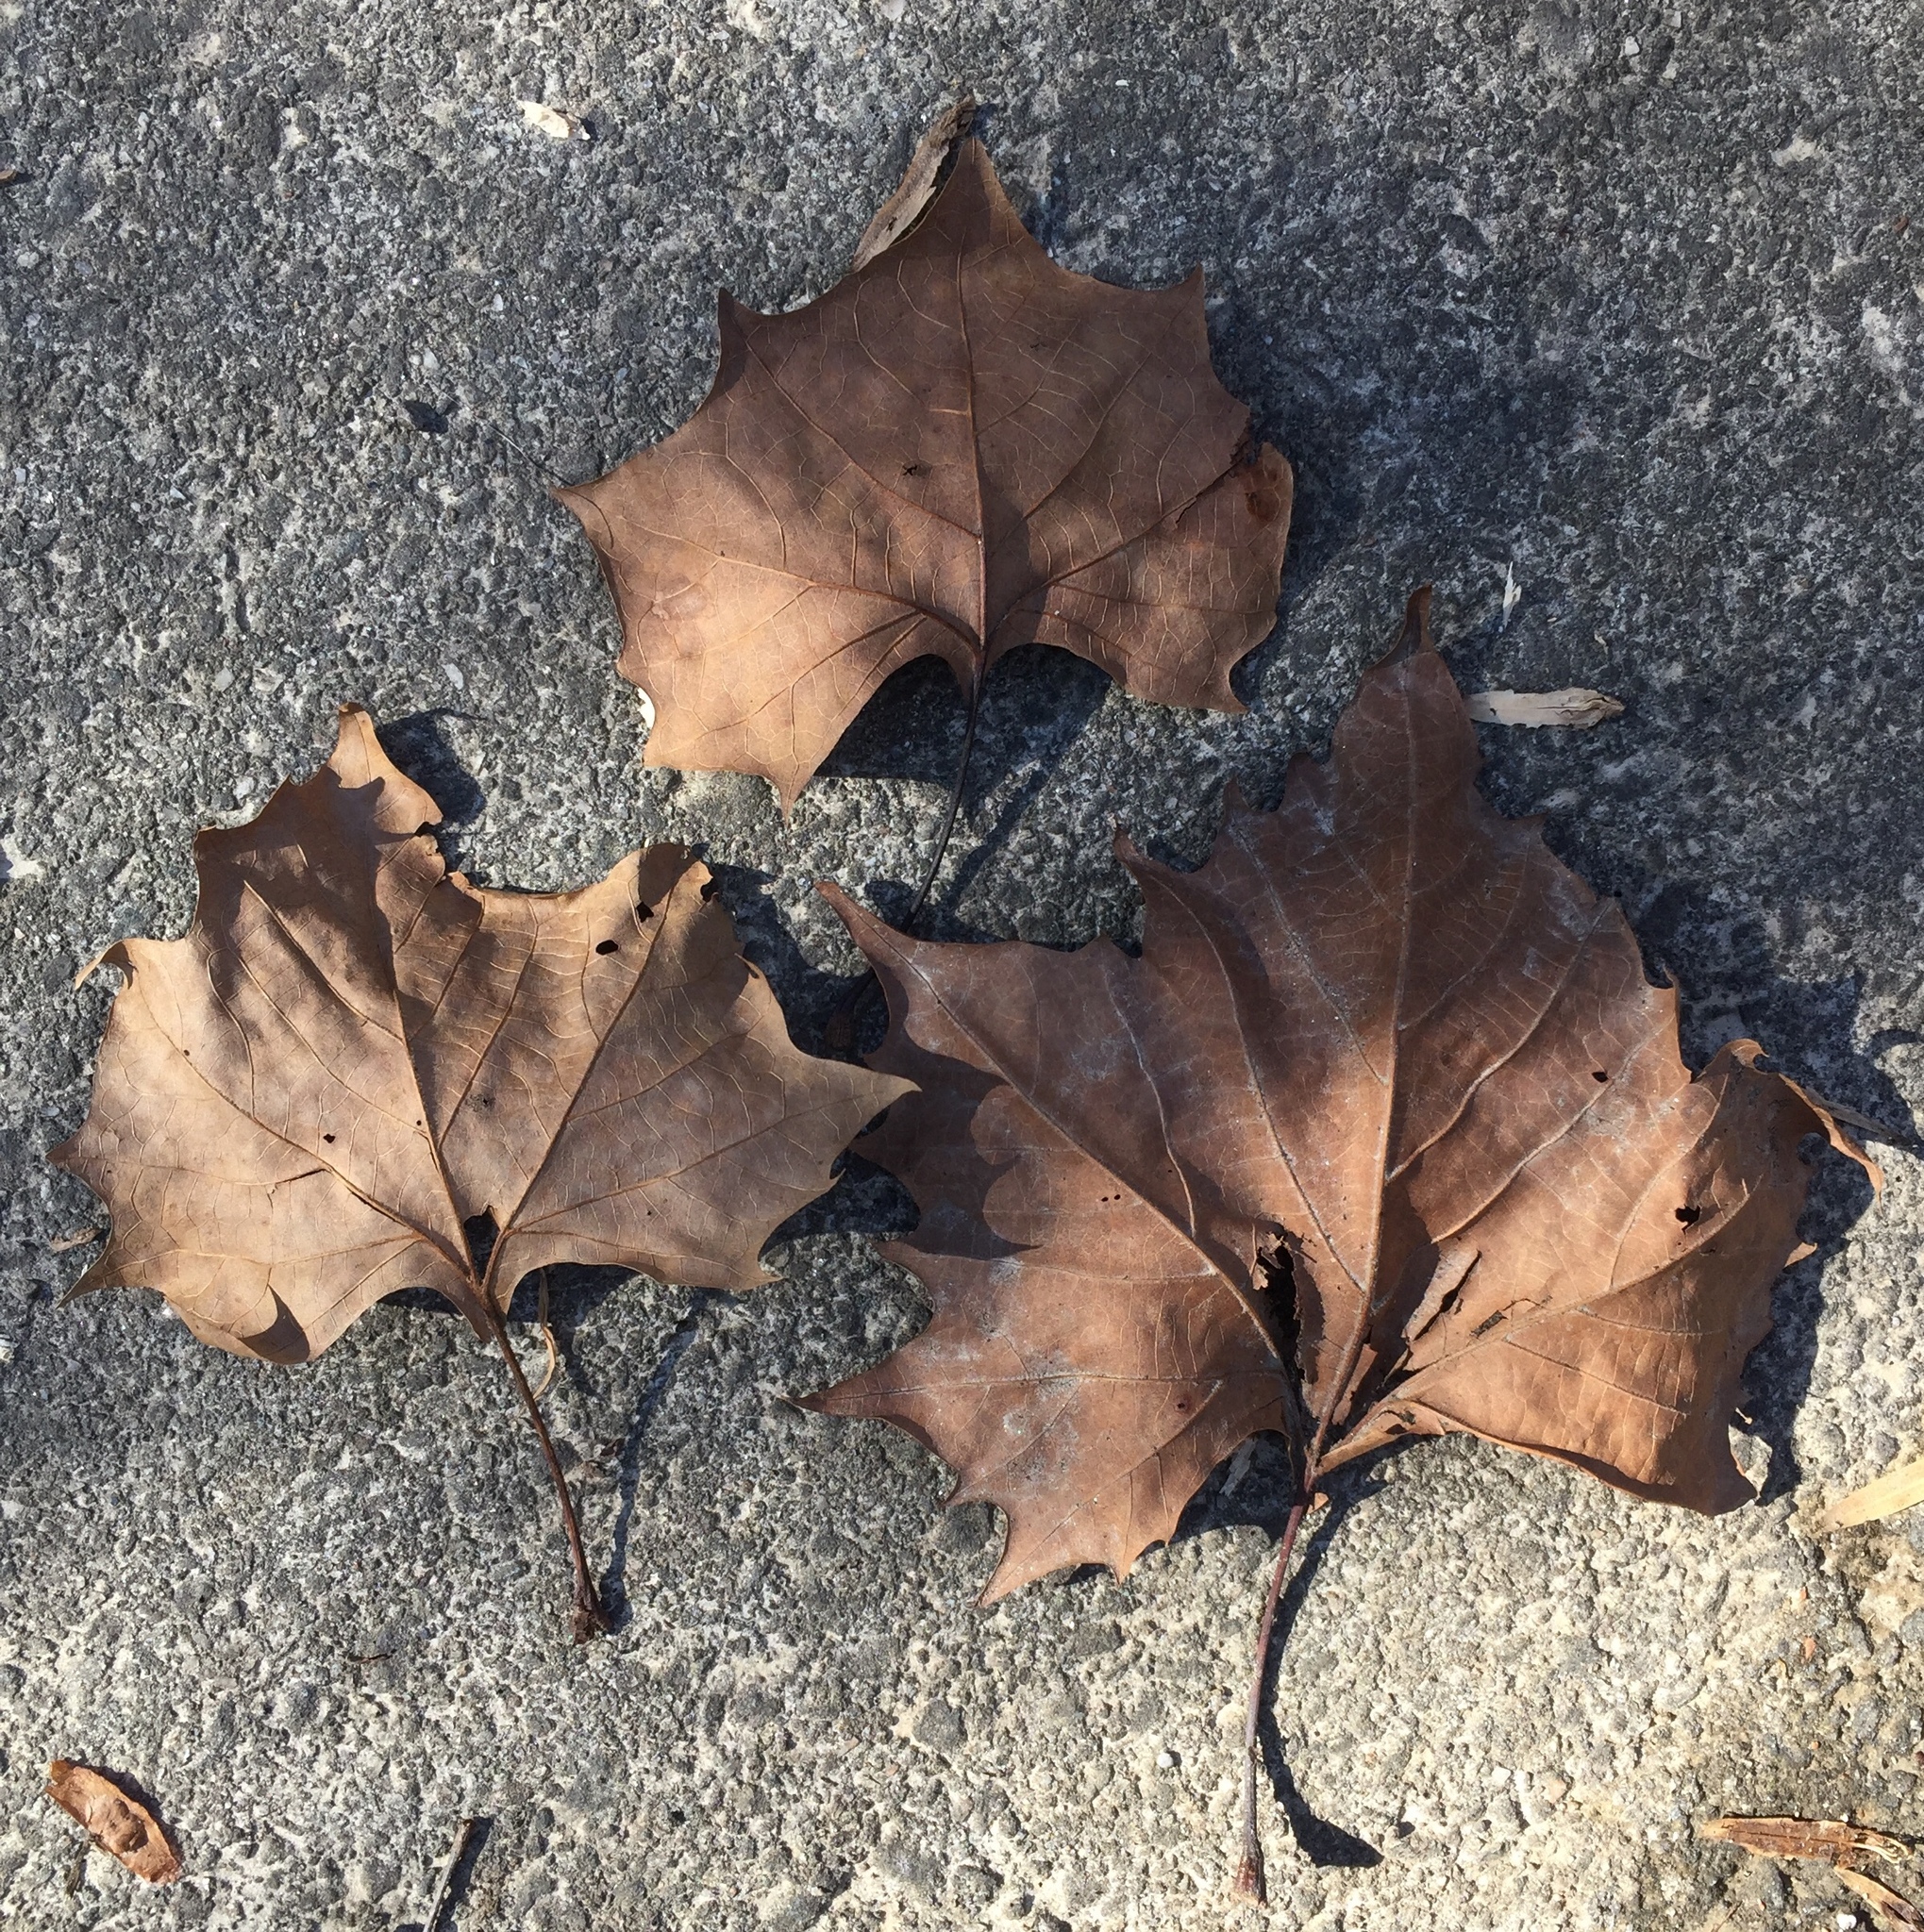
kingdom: Plantae
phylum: Tracheophyta
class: Magnoliopsida
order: Proteales
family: Platanaceae
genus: Platanus
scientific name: Platanus occidentalis
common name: American sycamore
